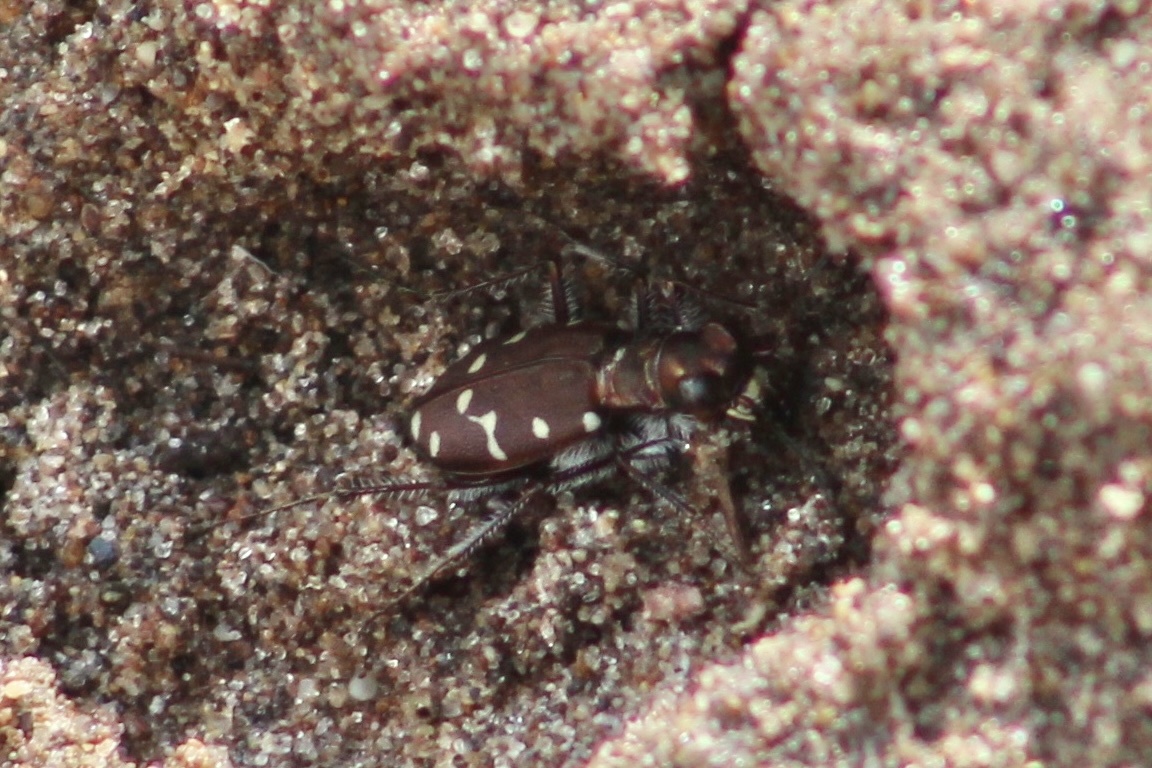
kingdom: Animalia
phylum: Arthropoda
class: Insecta
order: Coleoptera
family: Carabidae
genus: Cicindela
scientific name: Cicindela oregona
